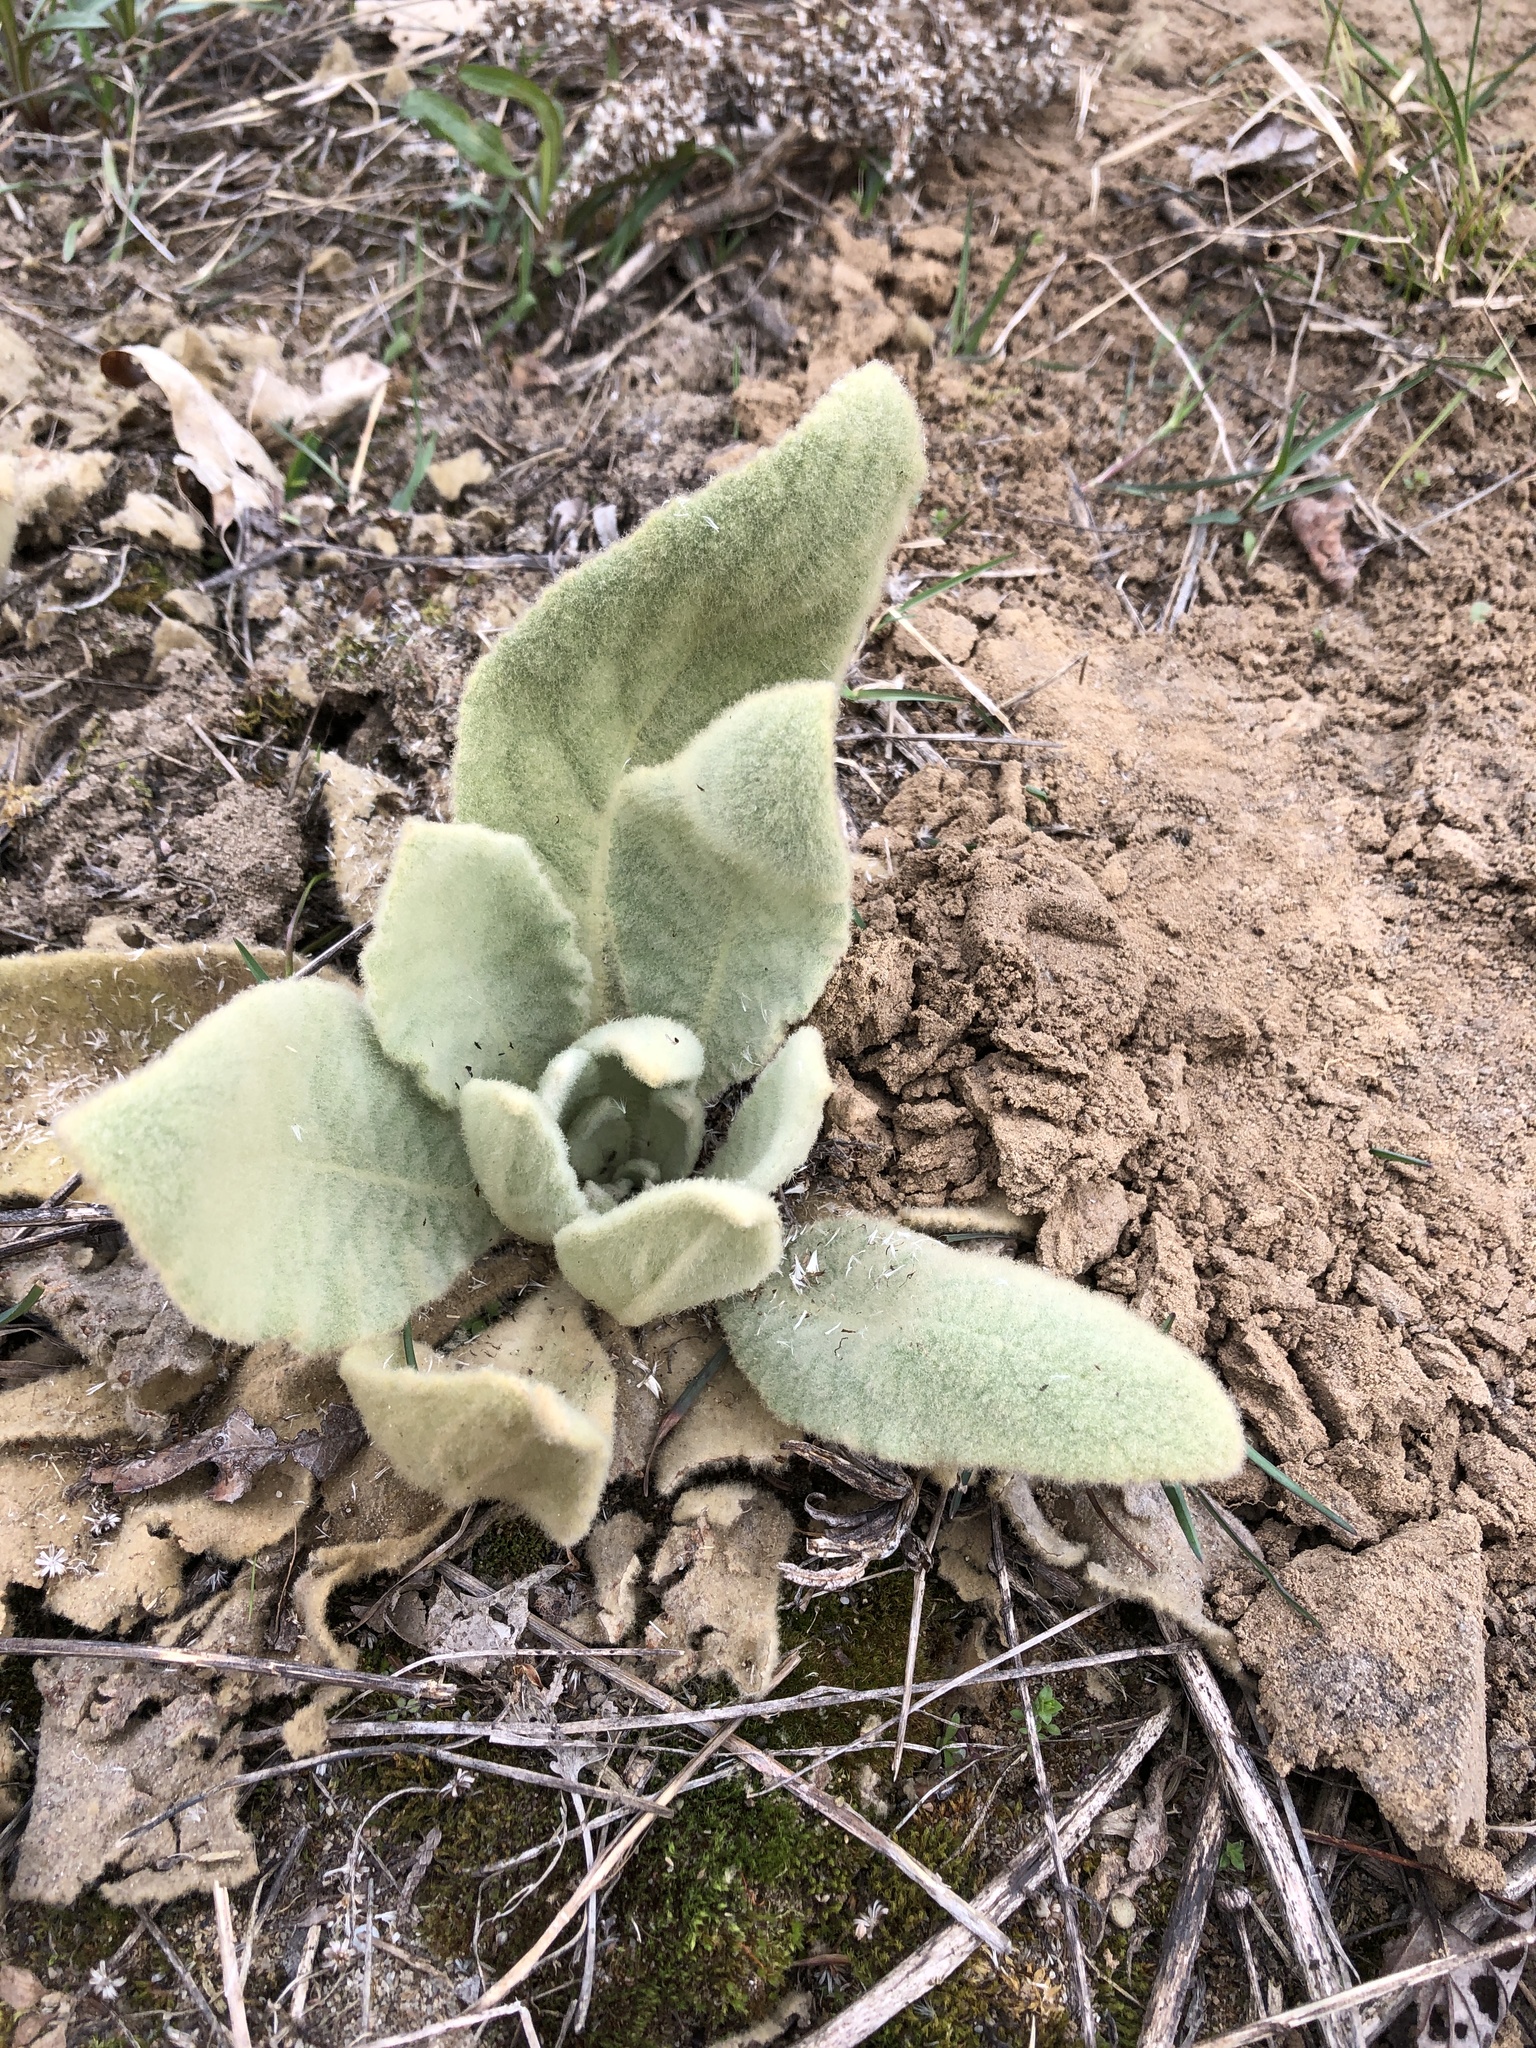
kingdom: Plantae
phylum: Tracheophyta
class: Magnoliopsida
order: Lamiales
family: Scrophulariaceae
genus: Verbascum
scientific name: Verbascum thapsus
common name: Common mullein
